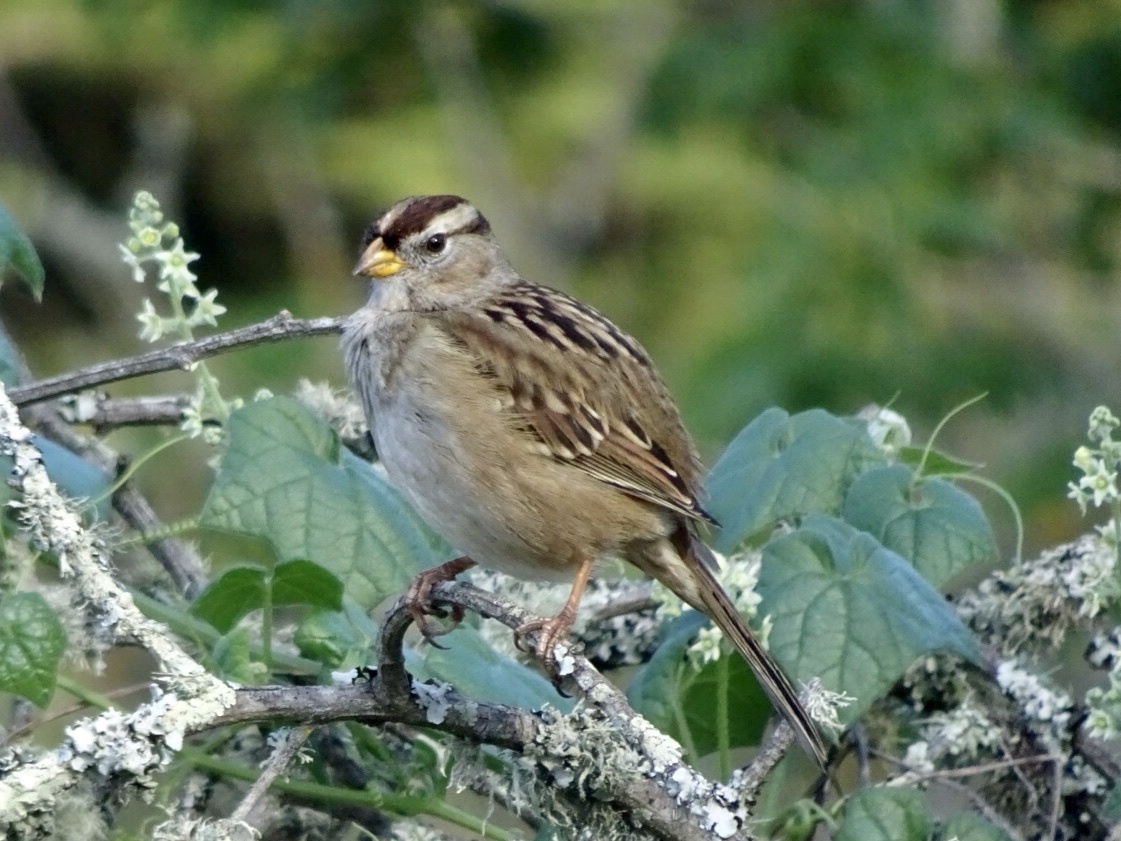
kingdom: Animalia
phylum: Chordata
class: Aves
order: Passeriformes
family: Passerellidae
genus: Zonotrichia
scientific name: Zonotrichia leucophrys
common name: White-crowned sparrow
